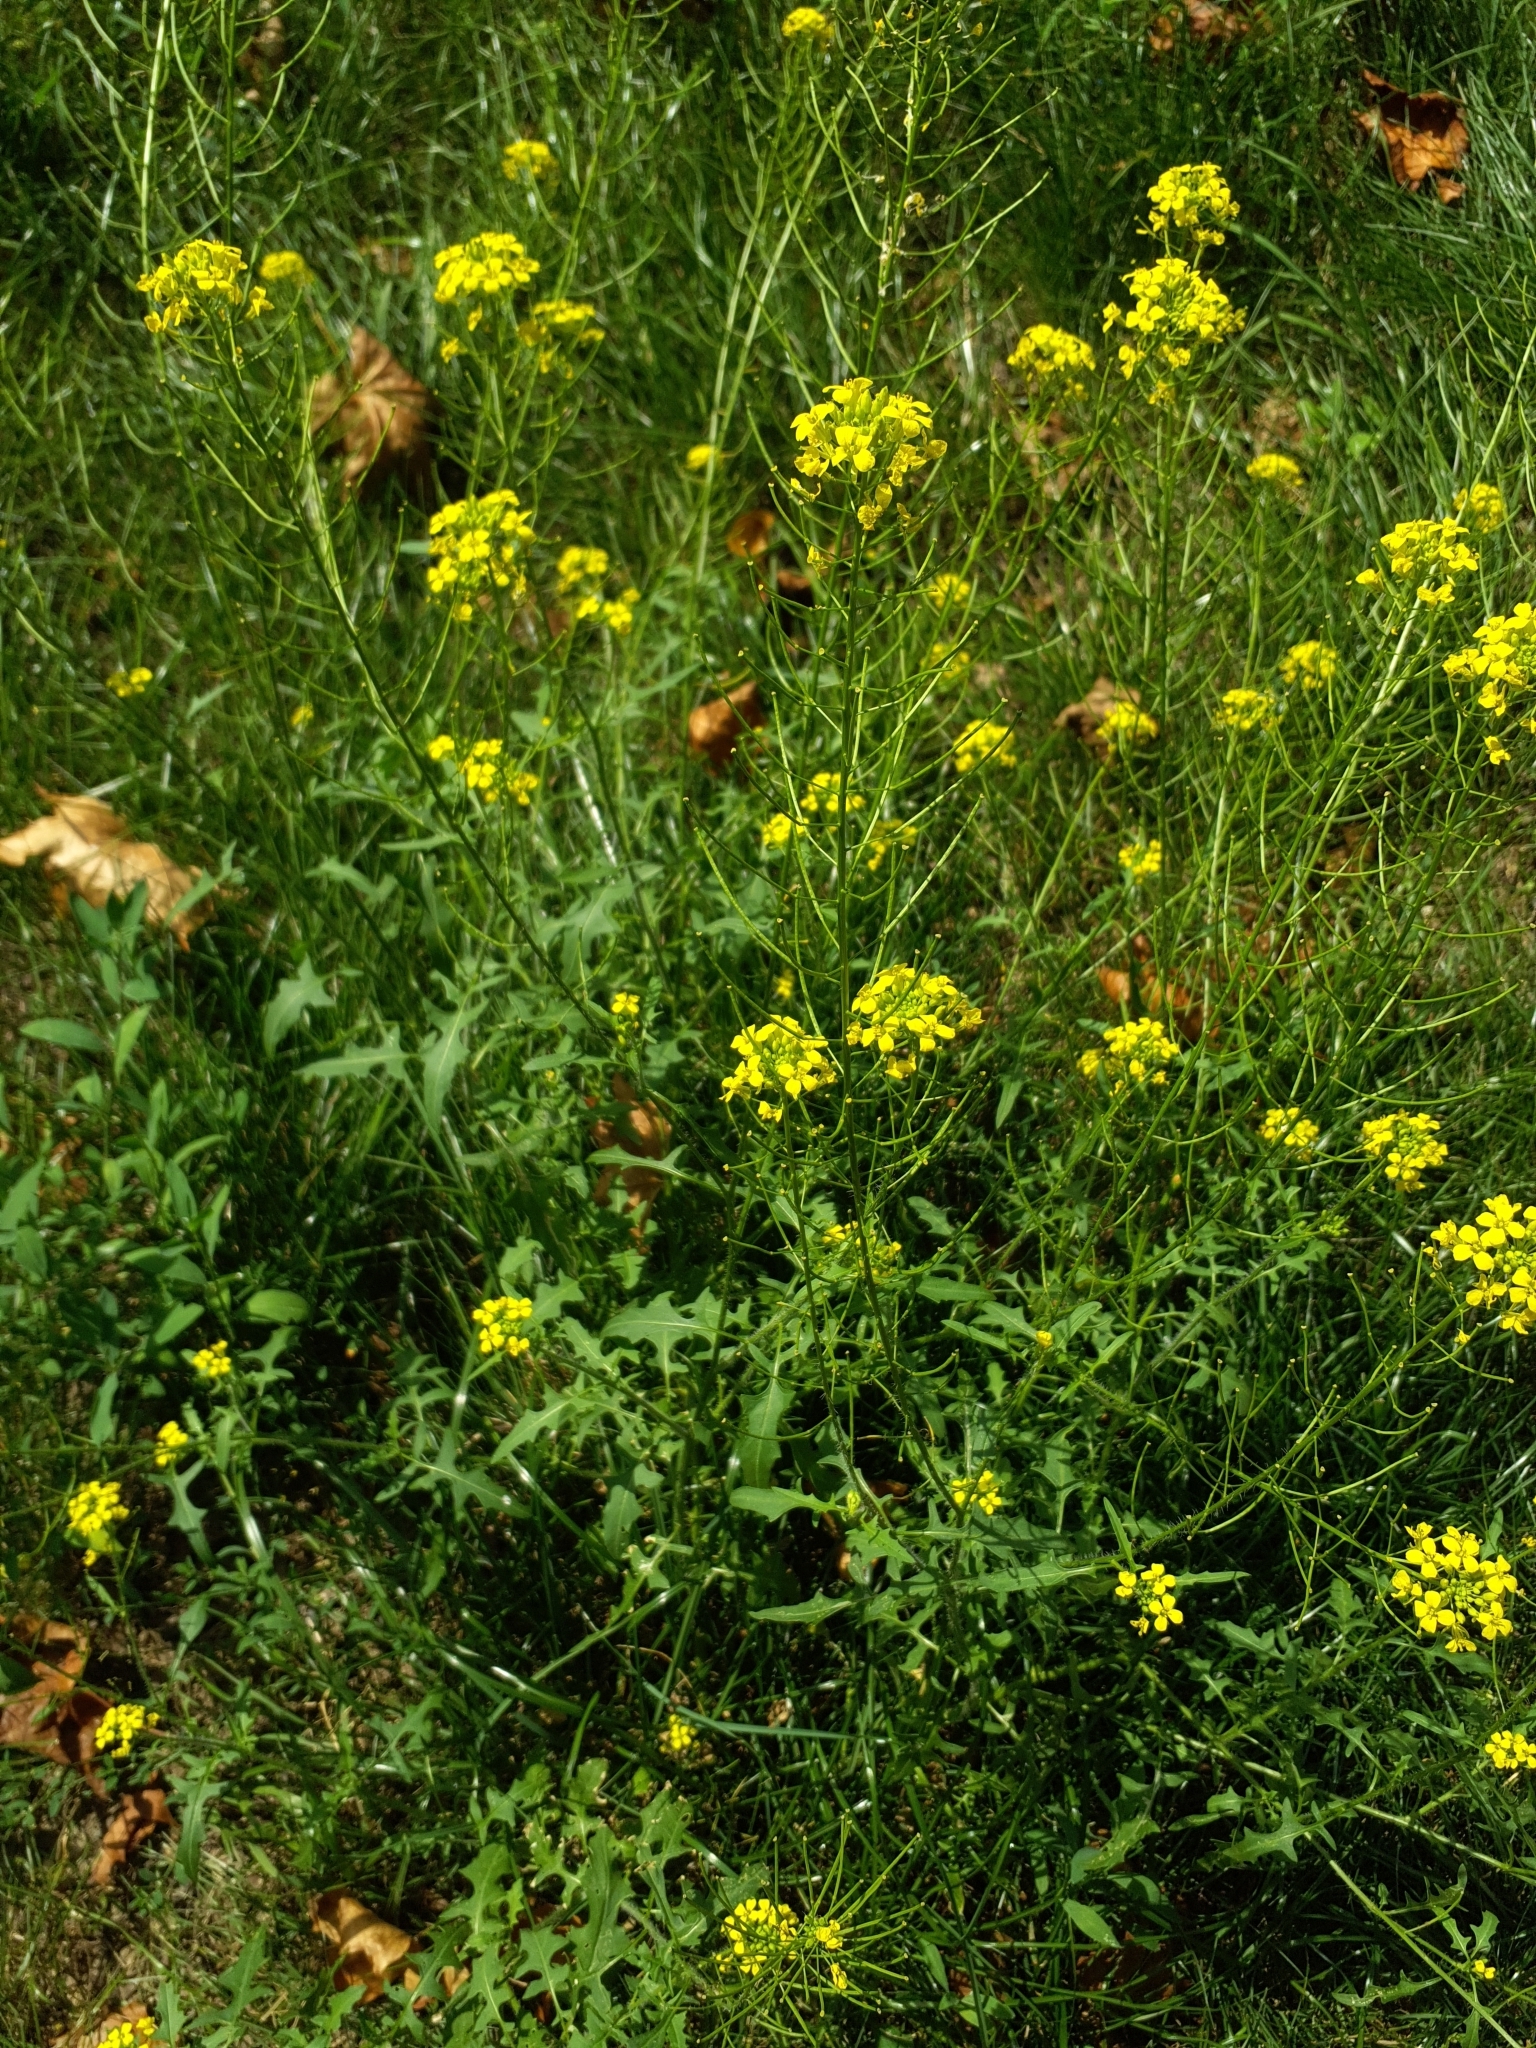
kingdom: Plantae
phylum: Tracheophyta
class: Magnoliopsida
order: Brassicales
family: Brassicaceae
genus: Sisymbrium
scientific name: Sisymbrium loeselii
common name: False london-rocket
